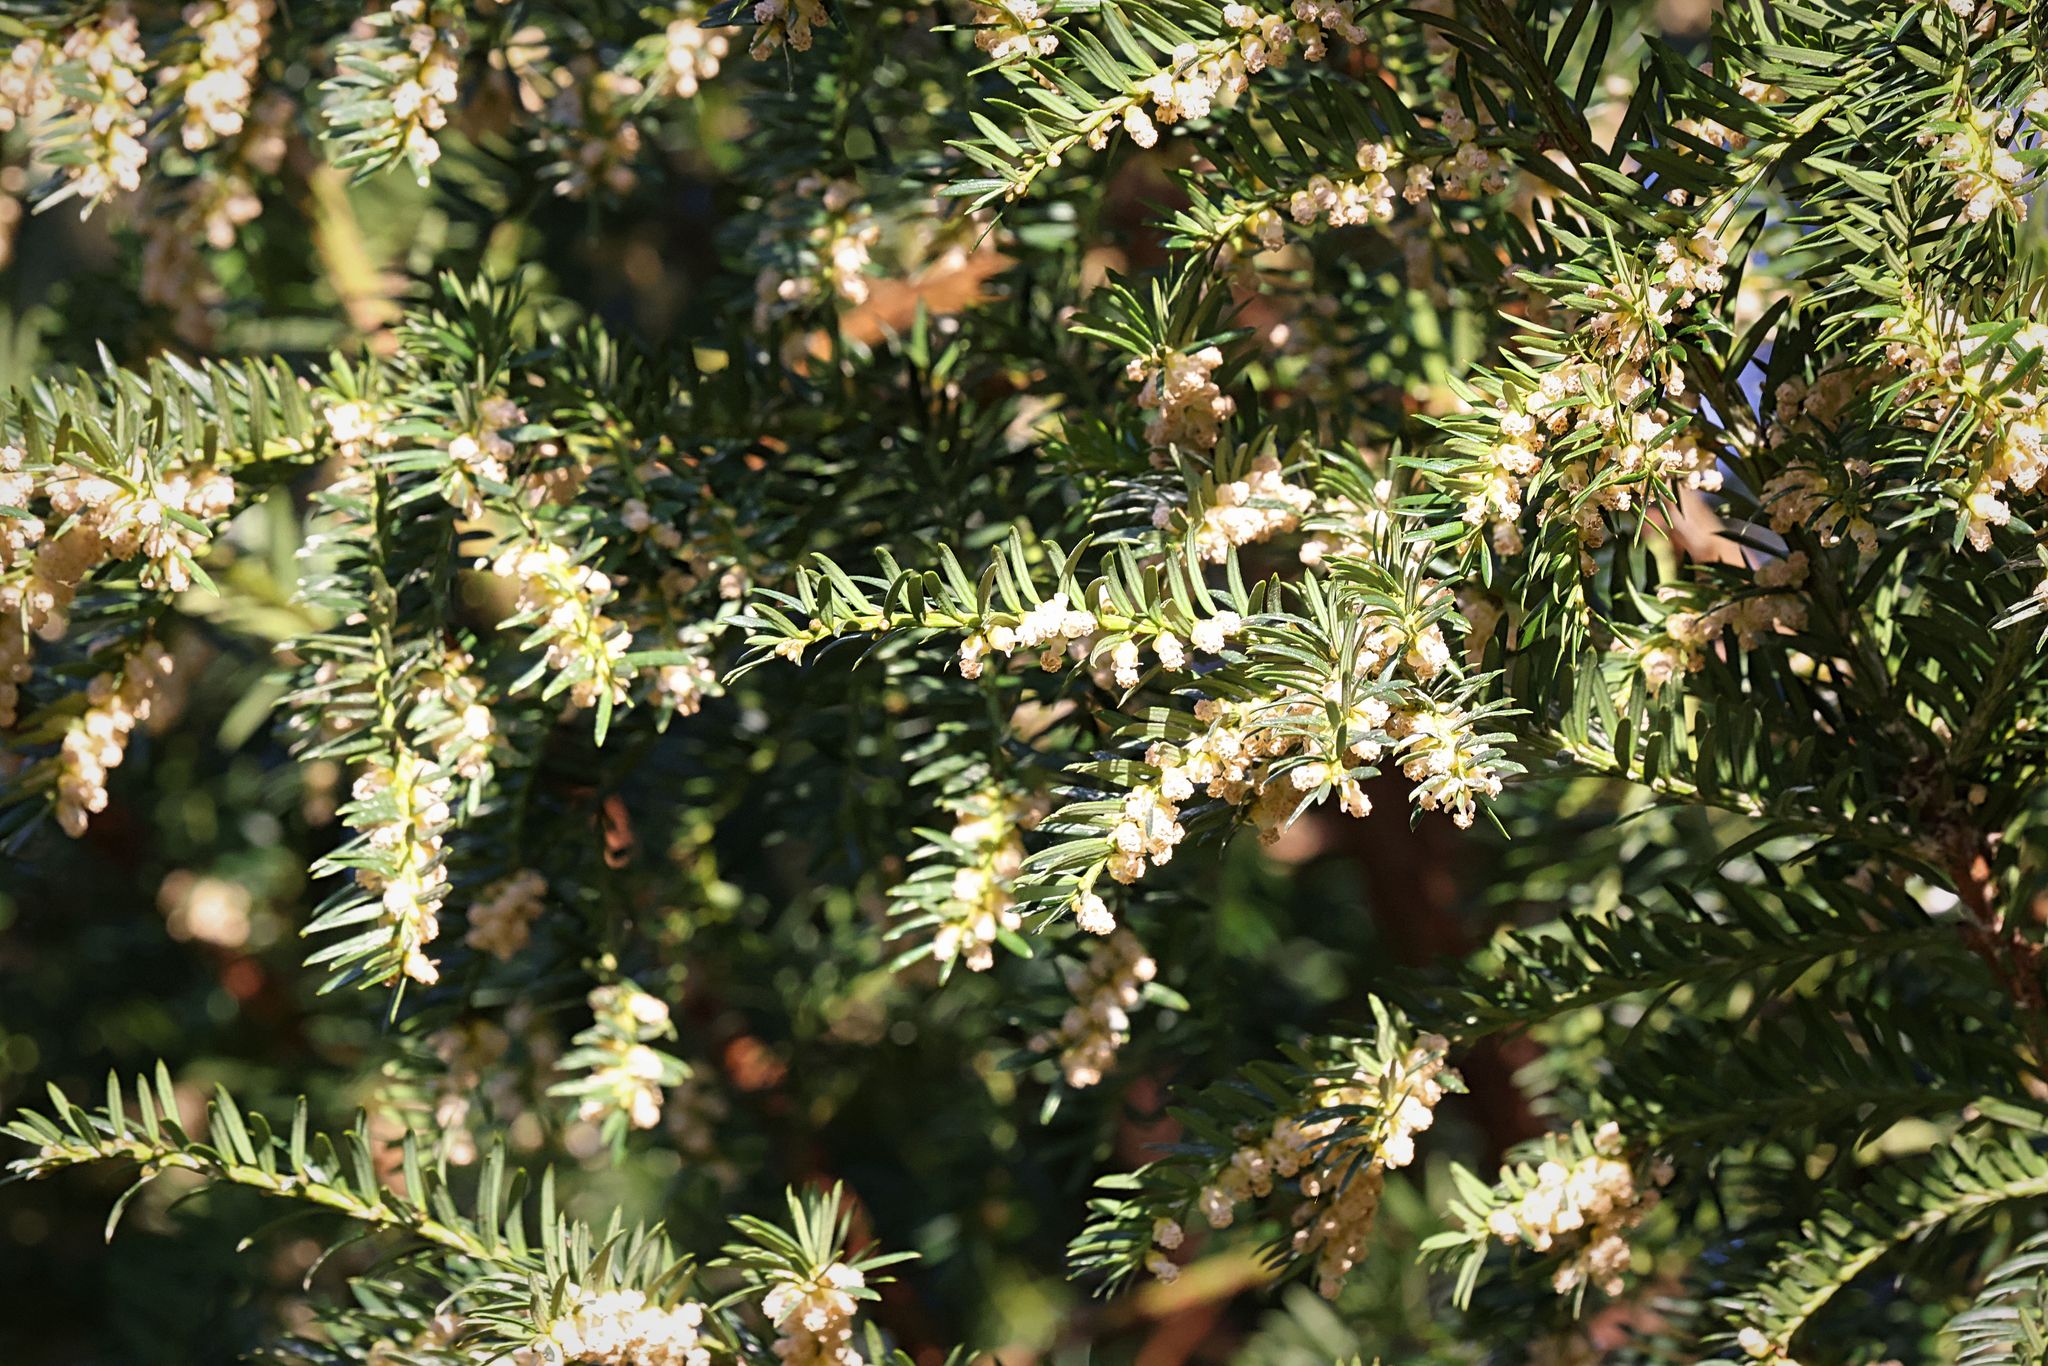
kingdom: Plantae
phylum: Tracheophyta
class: Pinopsida
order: Pinales
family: Taxaceae
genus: Taxus
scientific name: Taxus baccata
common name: Yew
